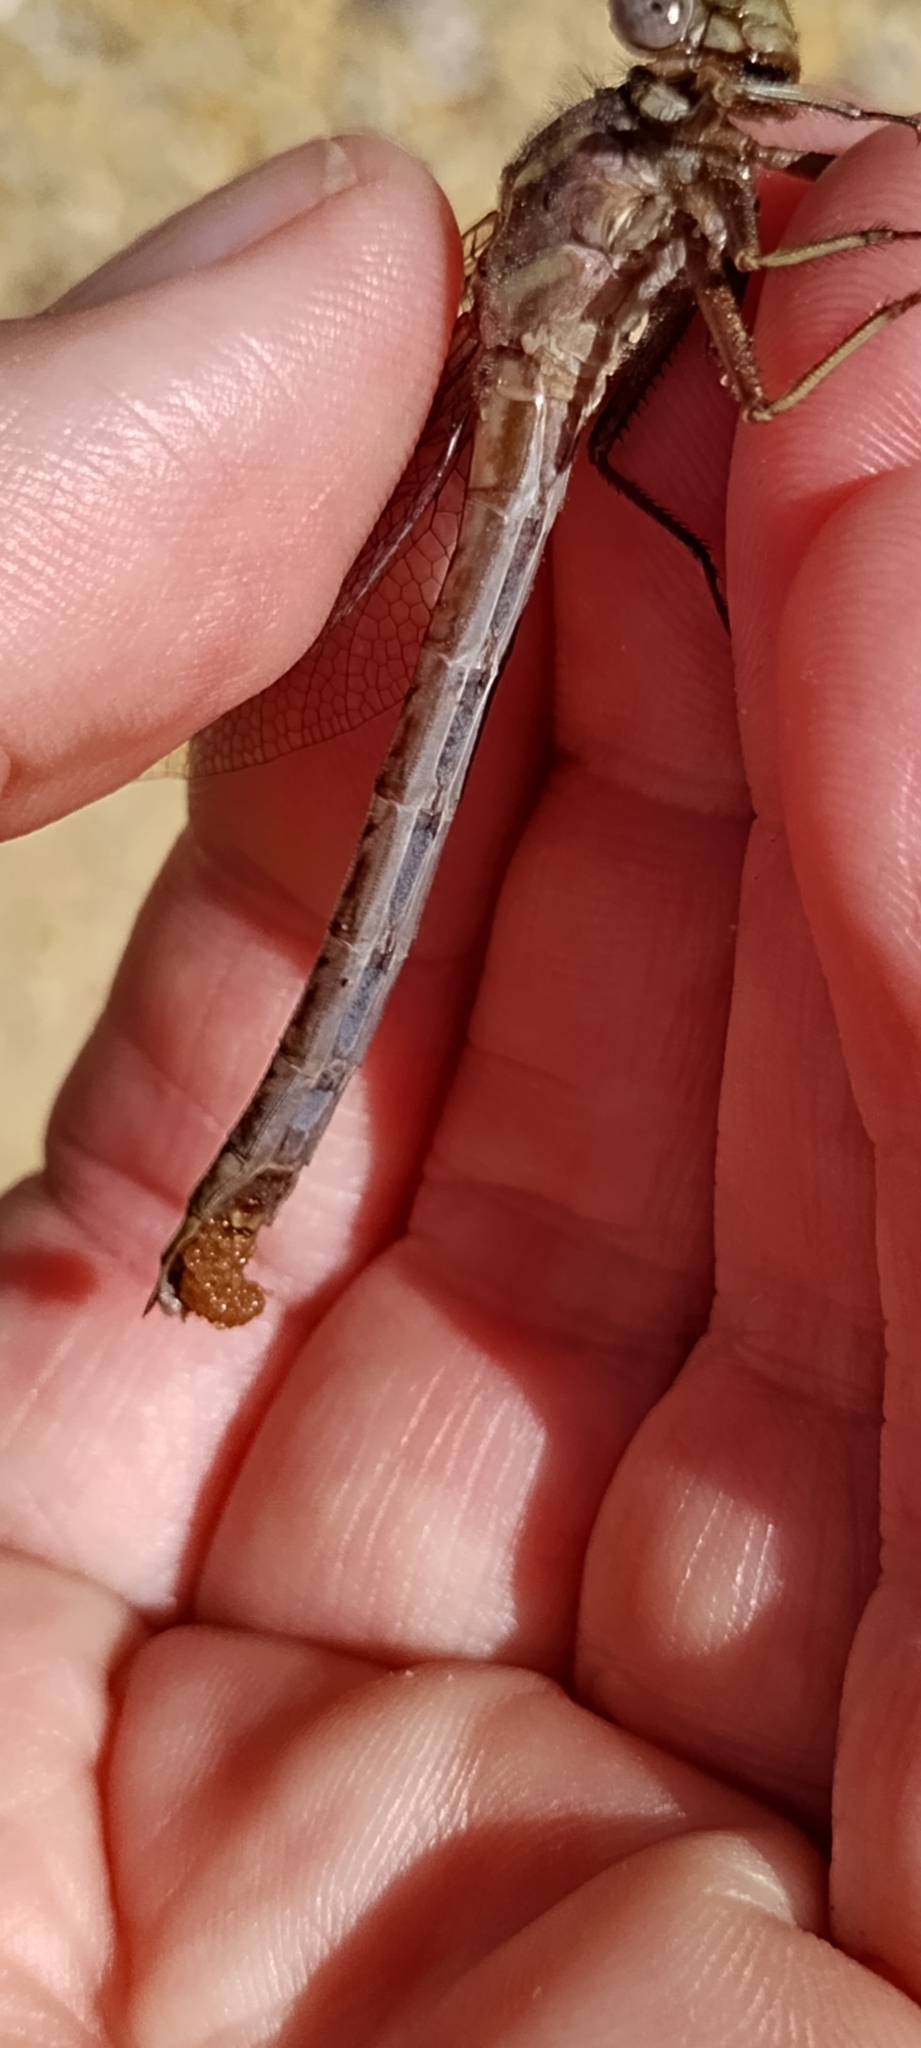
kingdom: Animalia
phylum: Arthropoda
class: Insecta
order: Odonata
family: Gomphidae
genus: Phanogomphus
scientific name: Phanogomphus lividus
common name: Ashy clubtail
